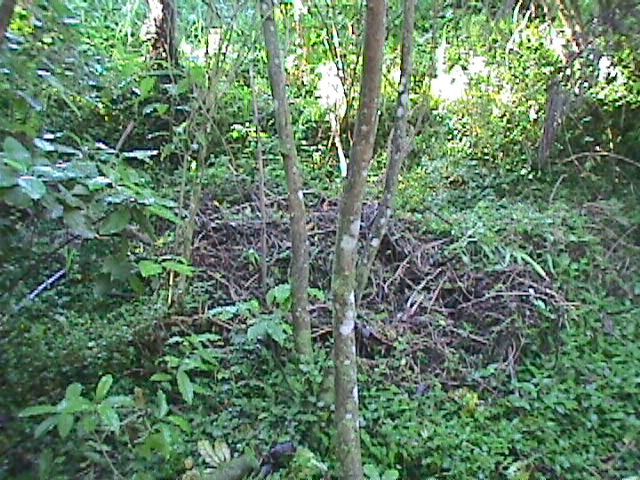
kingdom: Plantae
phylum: Tracheophyta
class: Liliopsida
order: Commelinales
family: Commelinaceae
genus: Tradescantia
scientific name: Tradescantia fluminensis
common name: Wandering-jew
